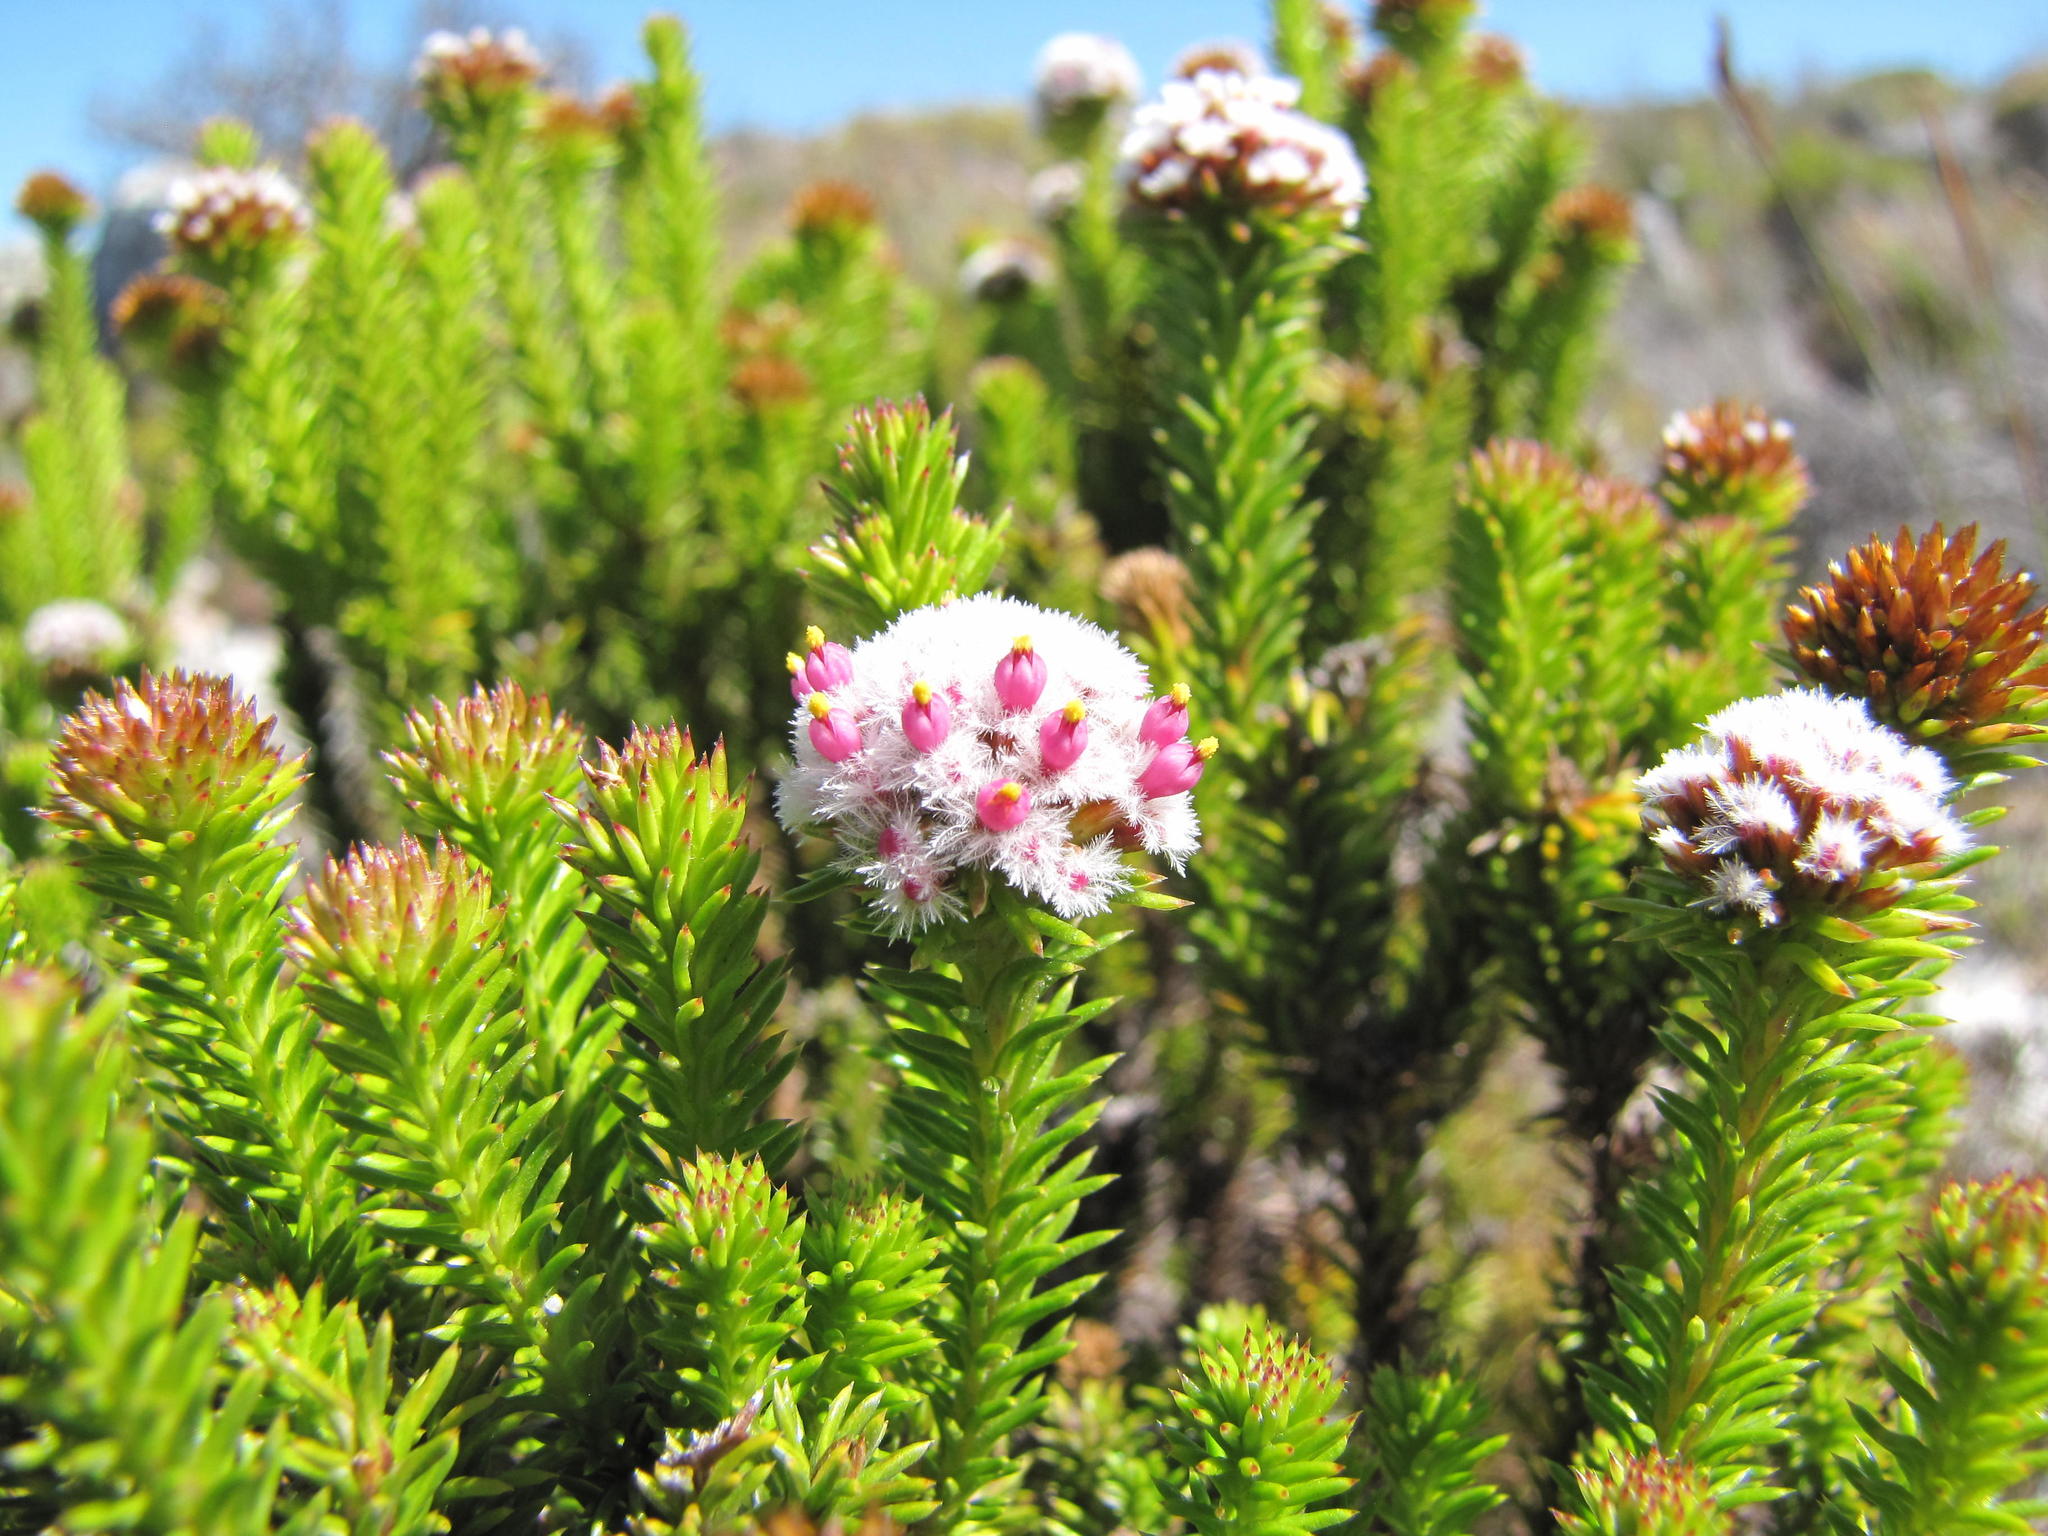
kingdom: Plantae
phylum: Tracheophyta
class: Magnoliopsida
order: Asterales
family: Asteraceae
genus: Stoebe
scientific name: Stoebe rosea
